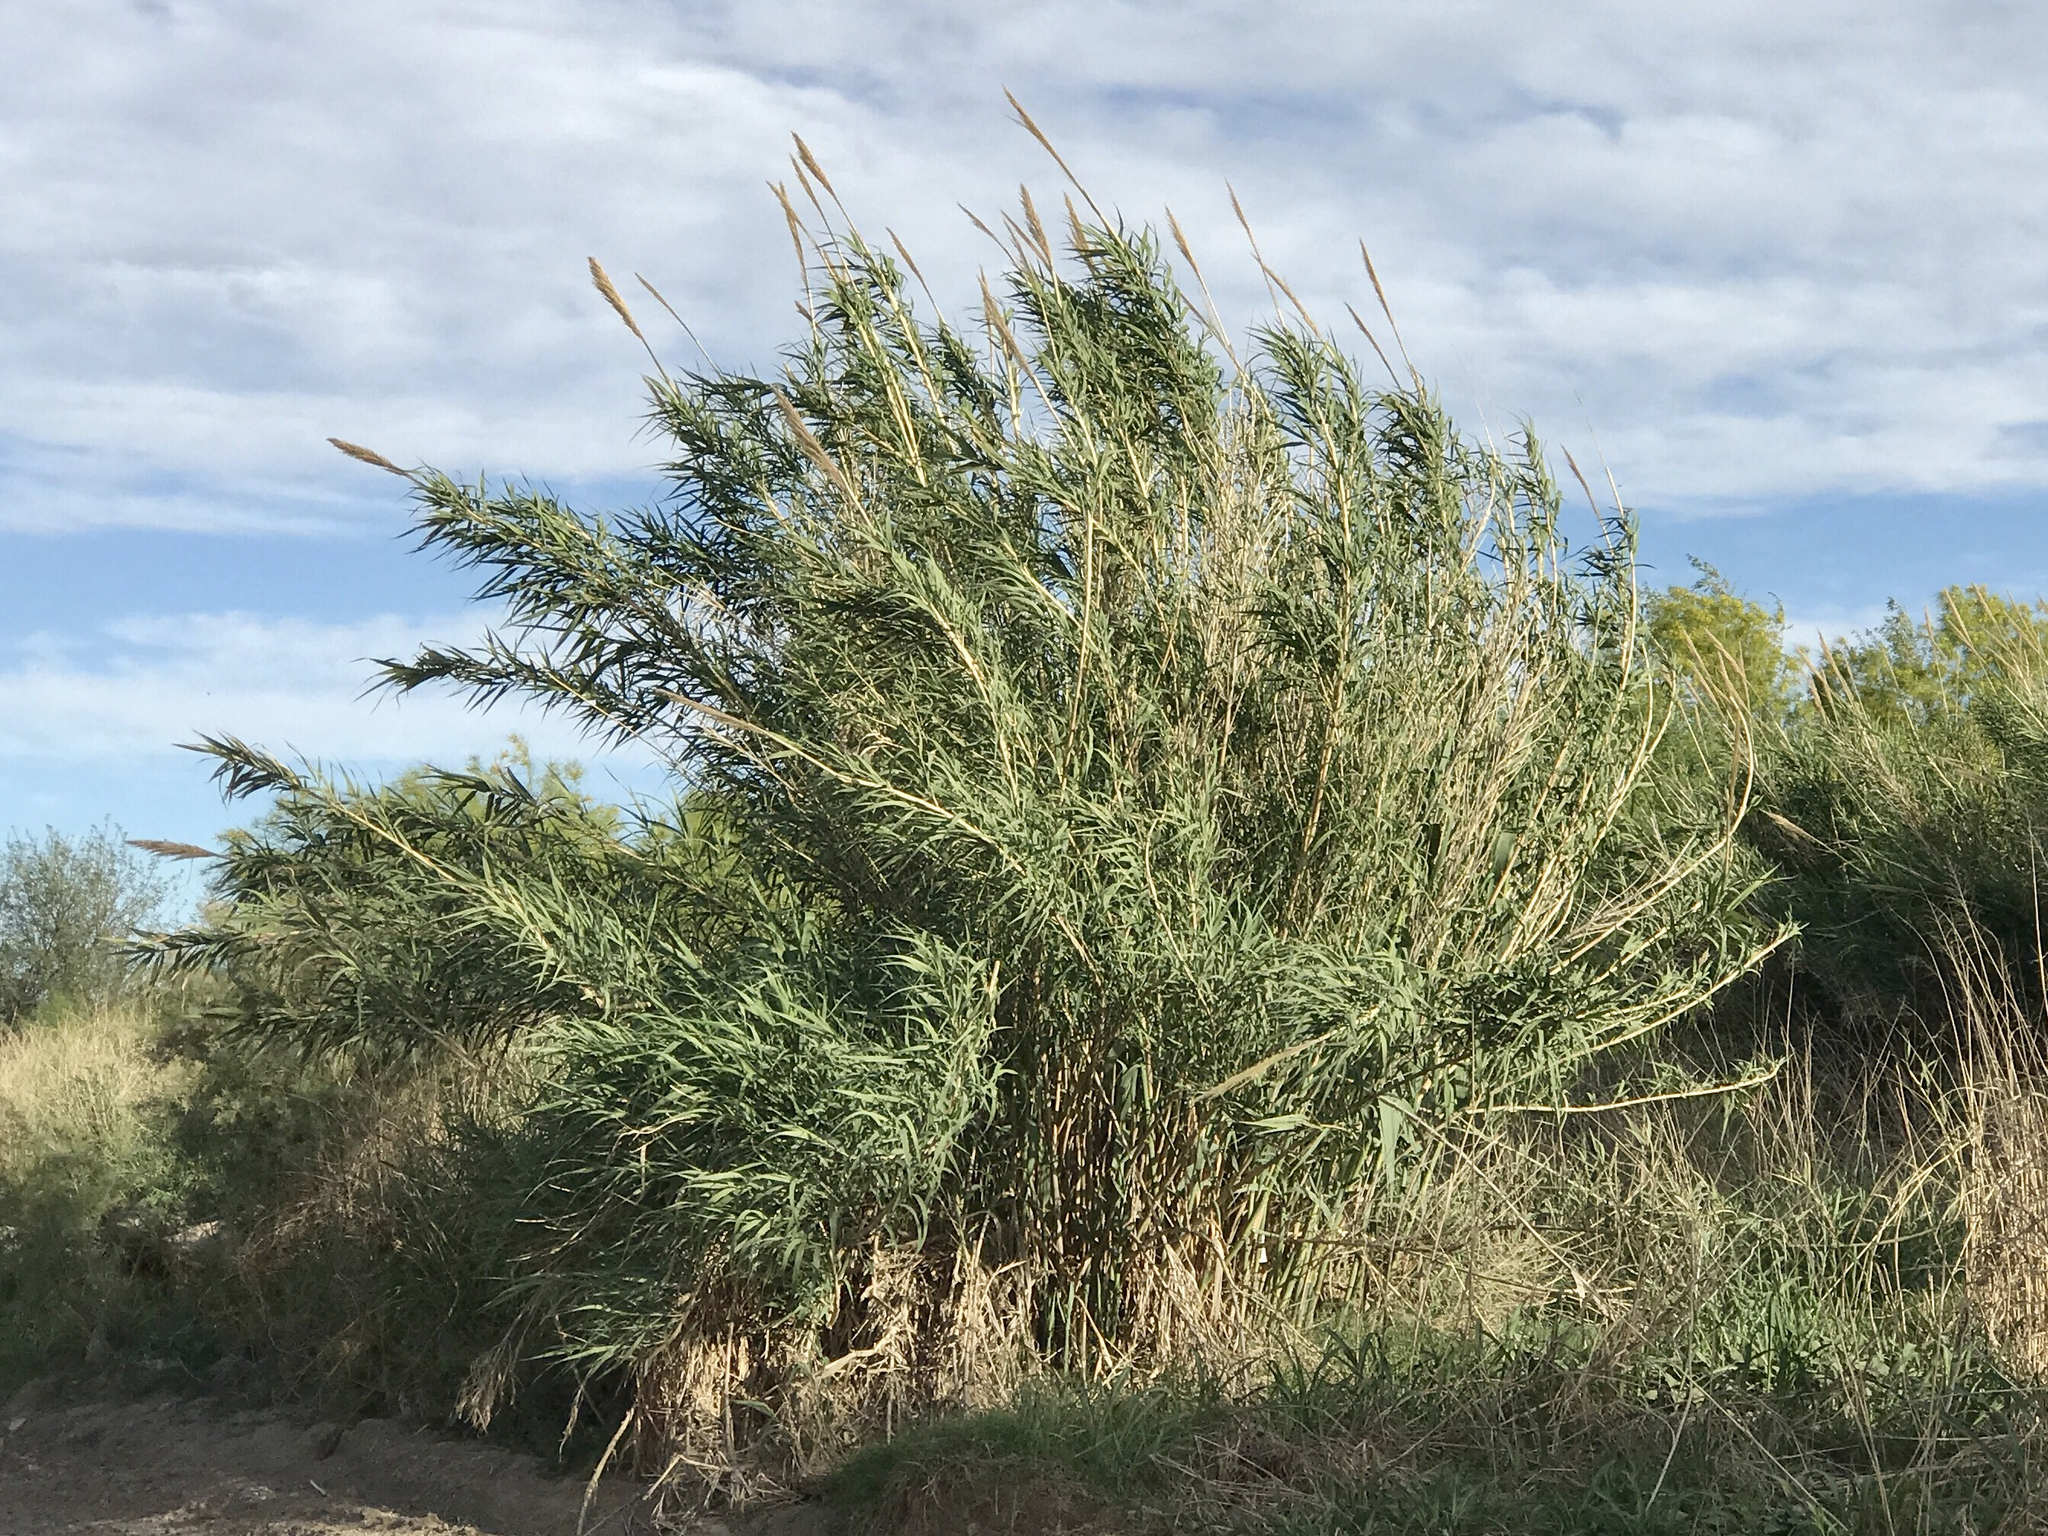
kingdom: Plantae
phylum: Tracheophyta
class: Liliopsida
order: Poales
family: Poaceae
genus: Arundo
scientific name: Arundo donax
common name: Giant reed
